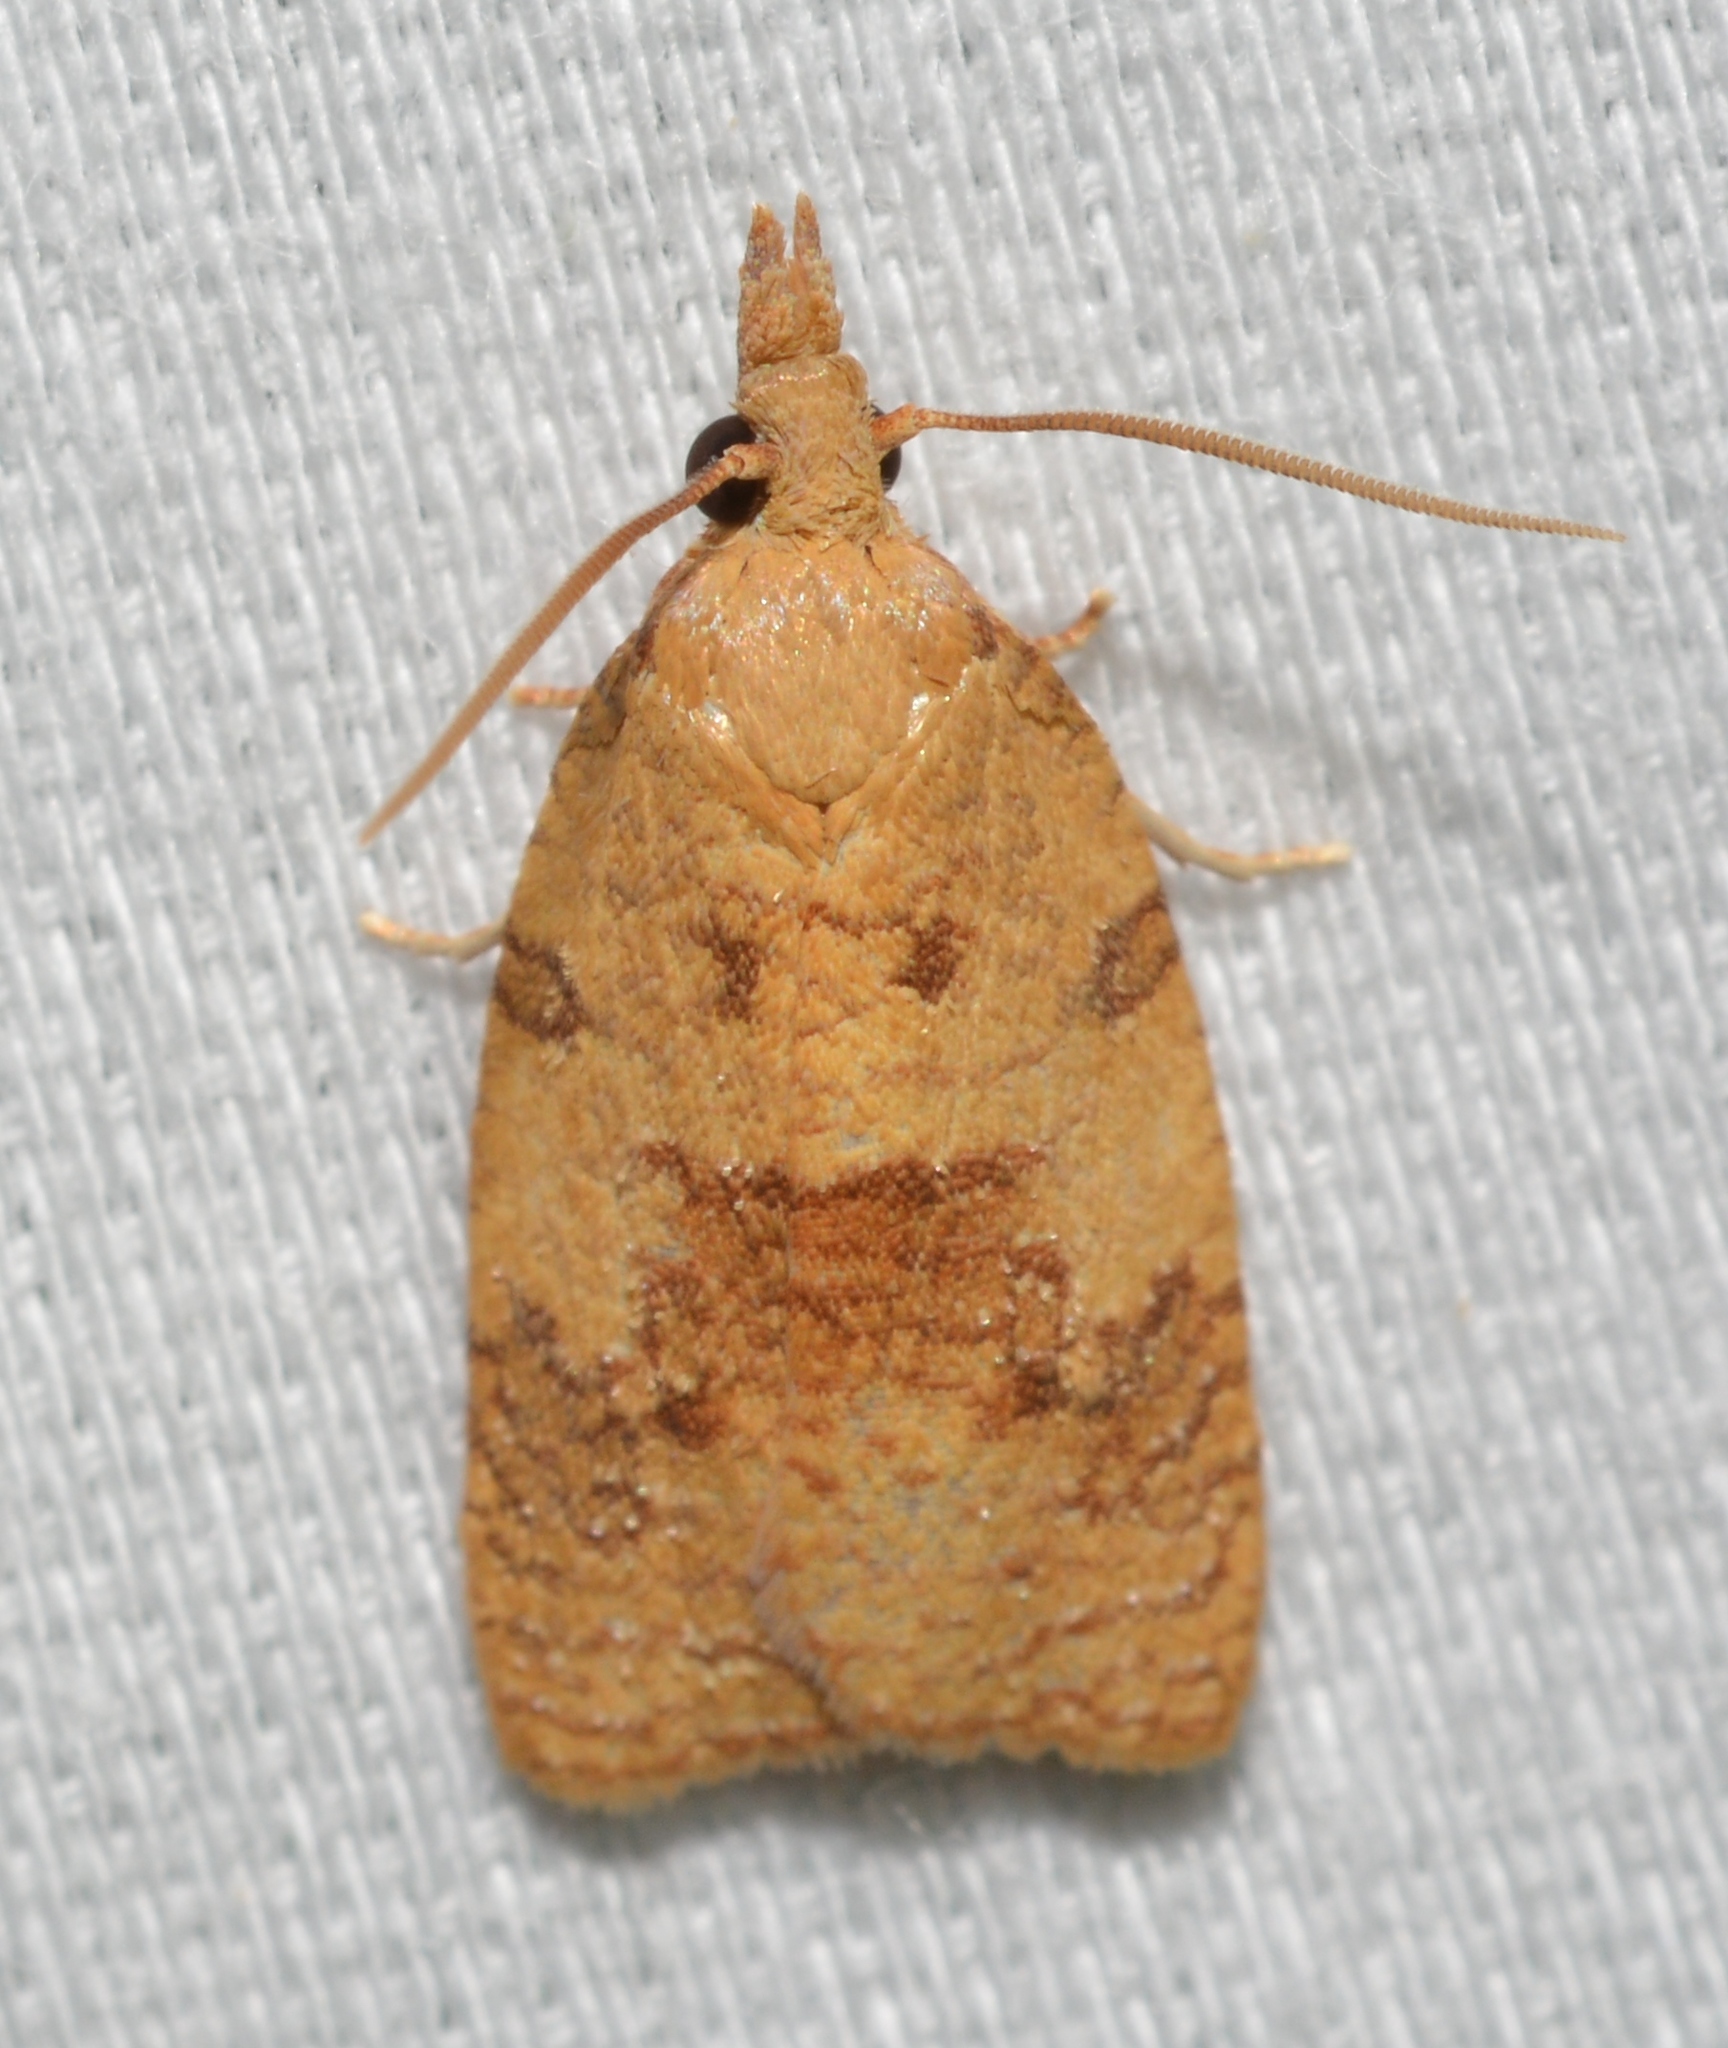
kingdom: Animalia
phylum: Arthropoda
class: Insecta
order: Lepidoptera
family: Tortricidae
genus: Cenopis
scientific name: Cenopis saracana
